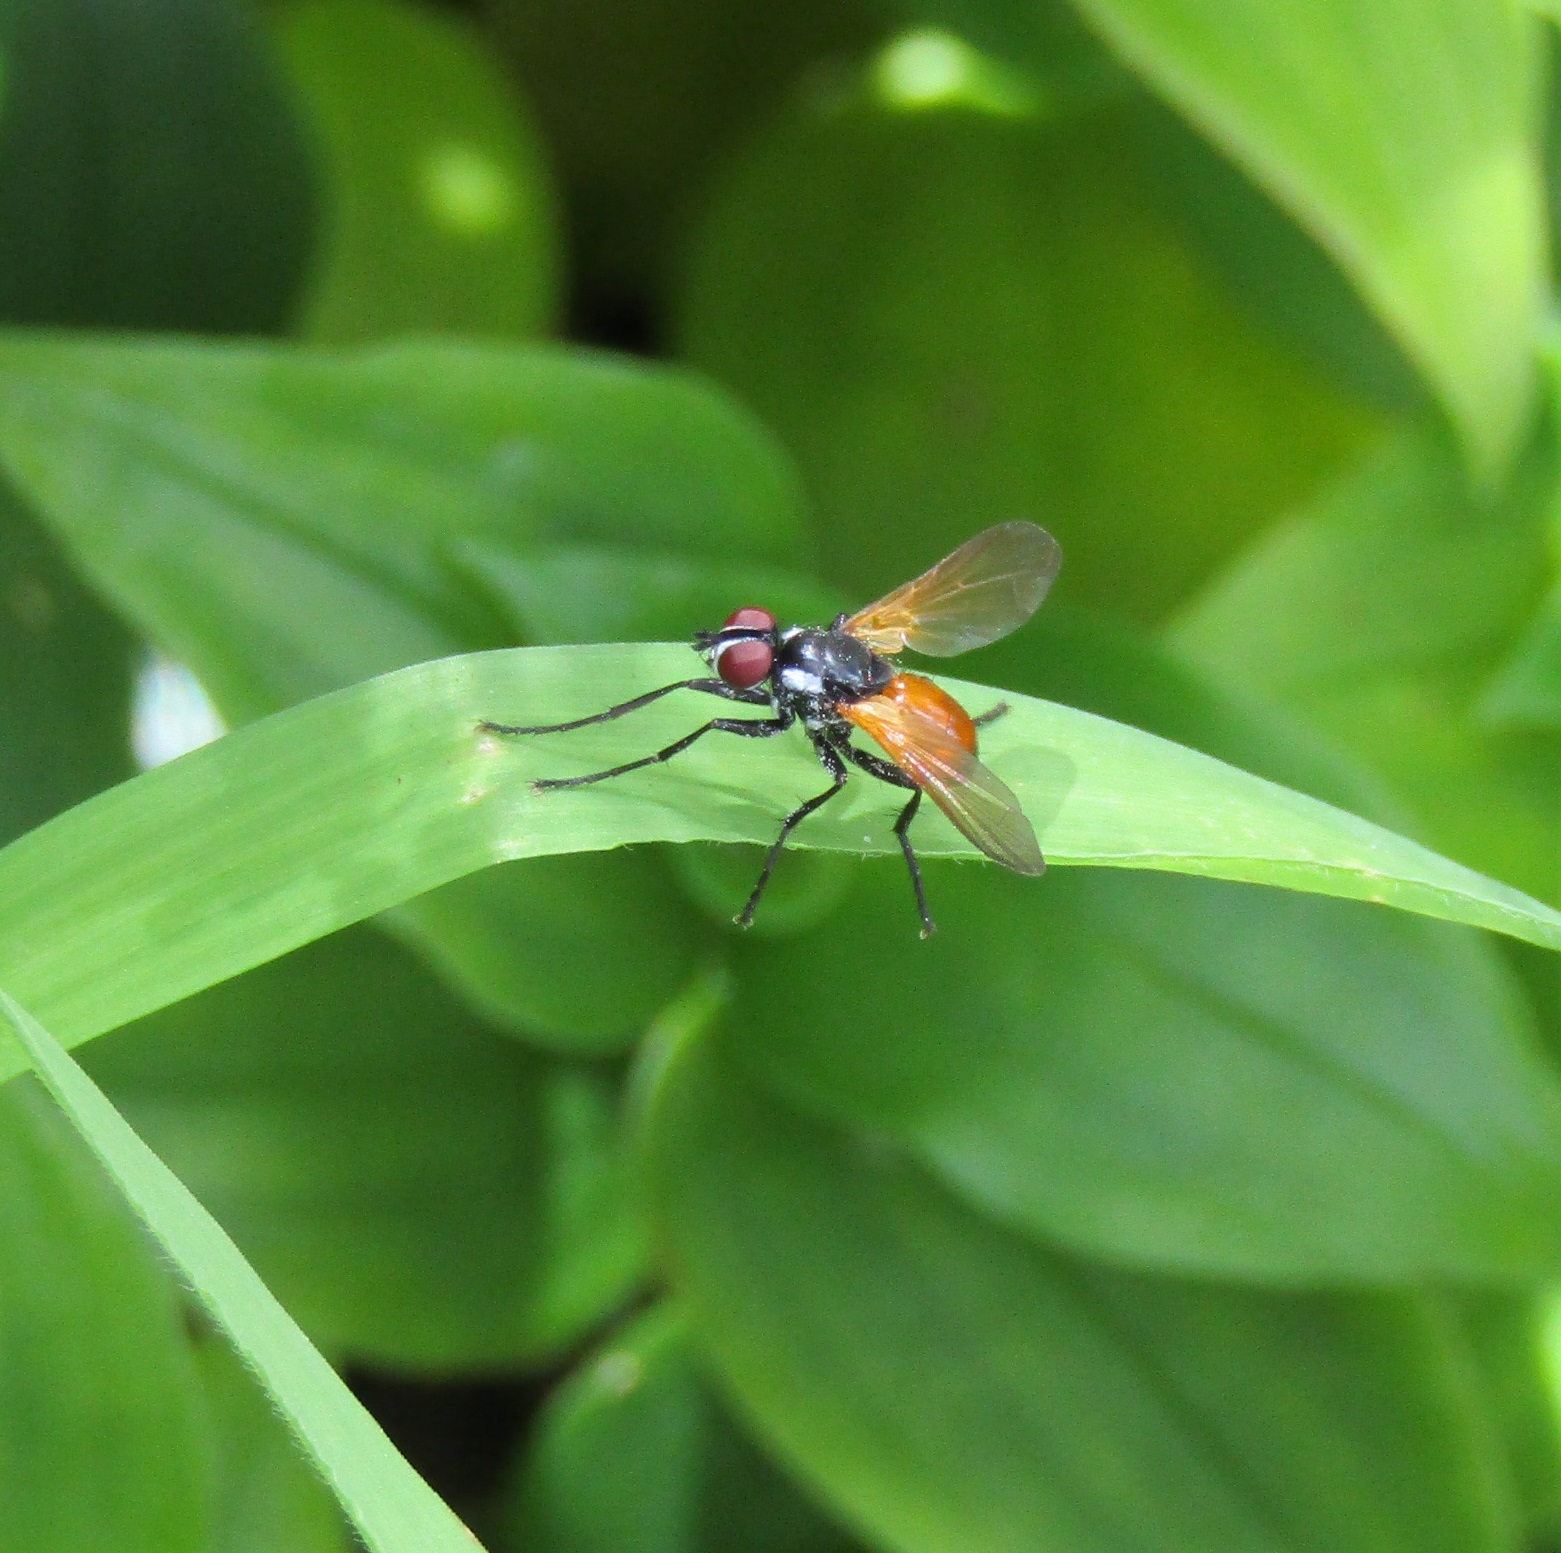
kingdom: Animalia
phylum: Arthropoda
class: Insecta
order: Diptera
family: Tachinidae
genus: Huttonobesseria
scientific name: Huttonobesseria verecunda
